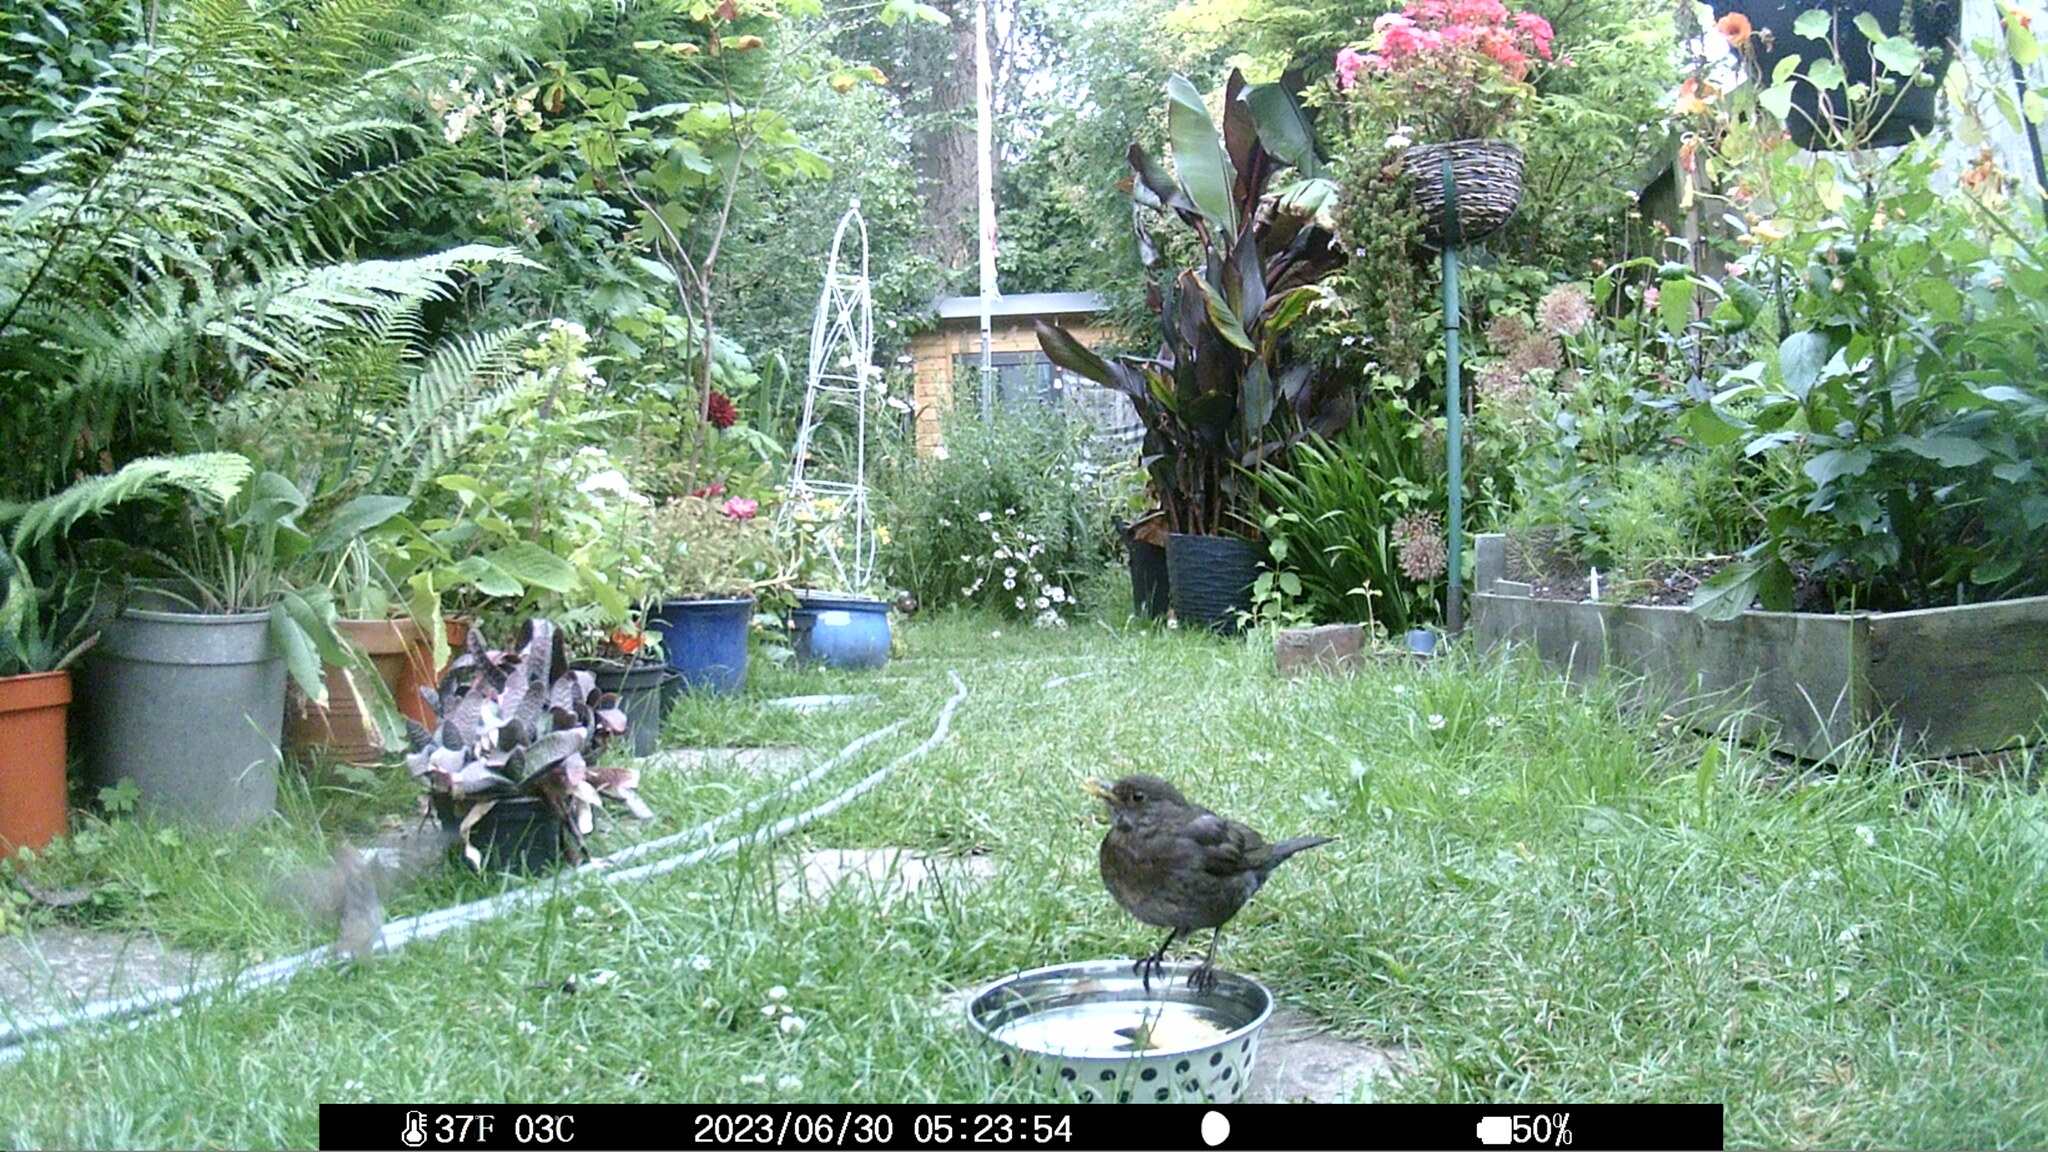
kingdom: Animalia
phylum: Chordata
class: Aves
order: Passeriformes
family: Turdidae
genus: Turdus
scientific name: Turdus merula
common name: Common blackbird
